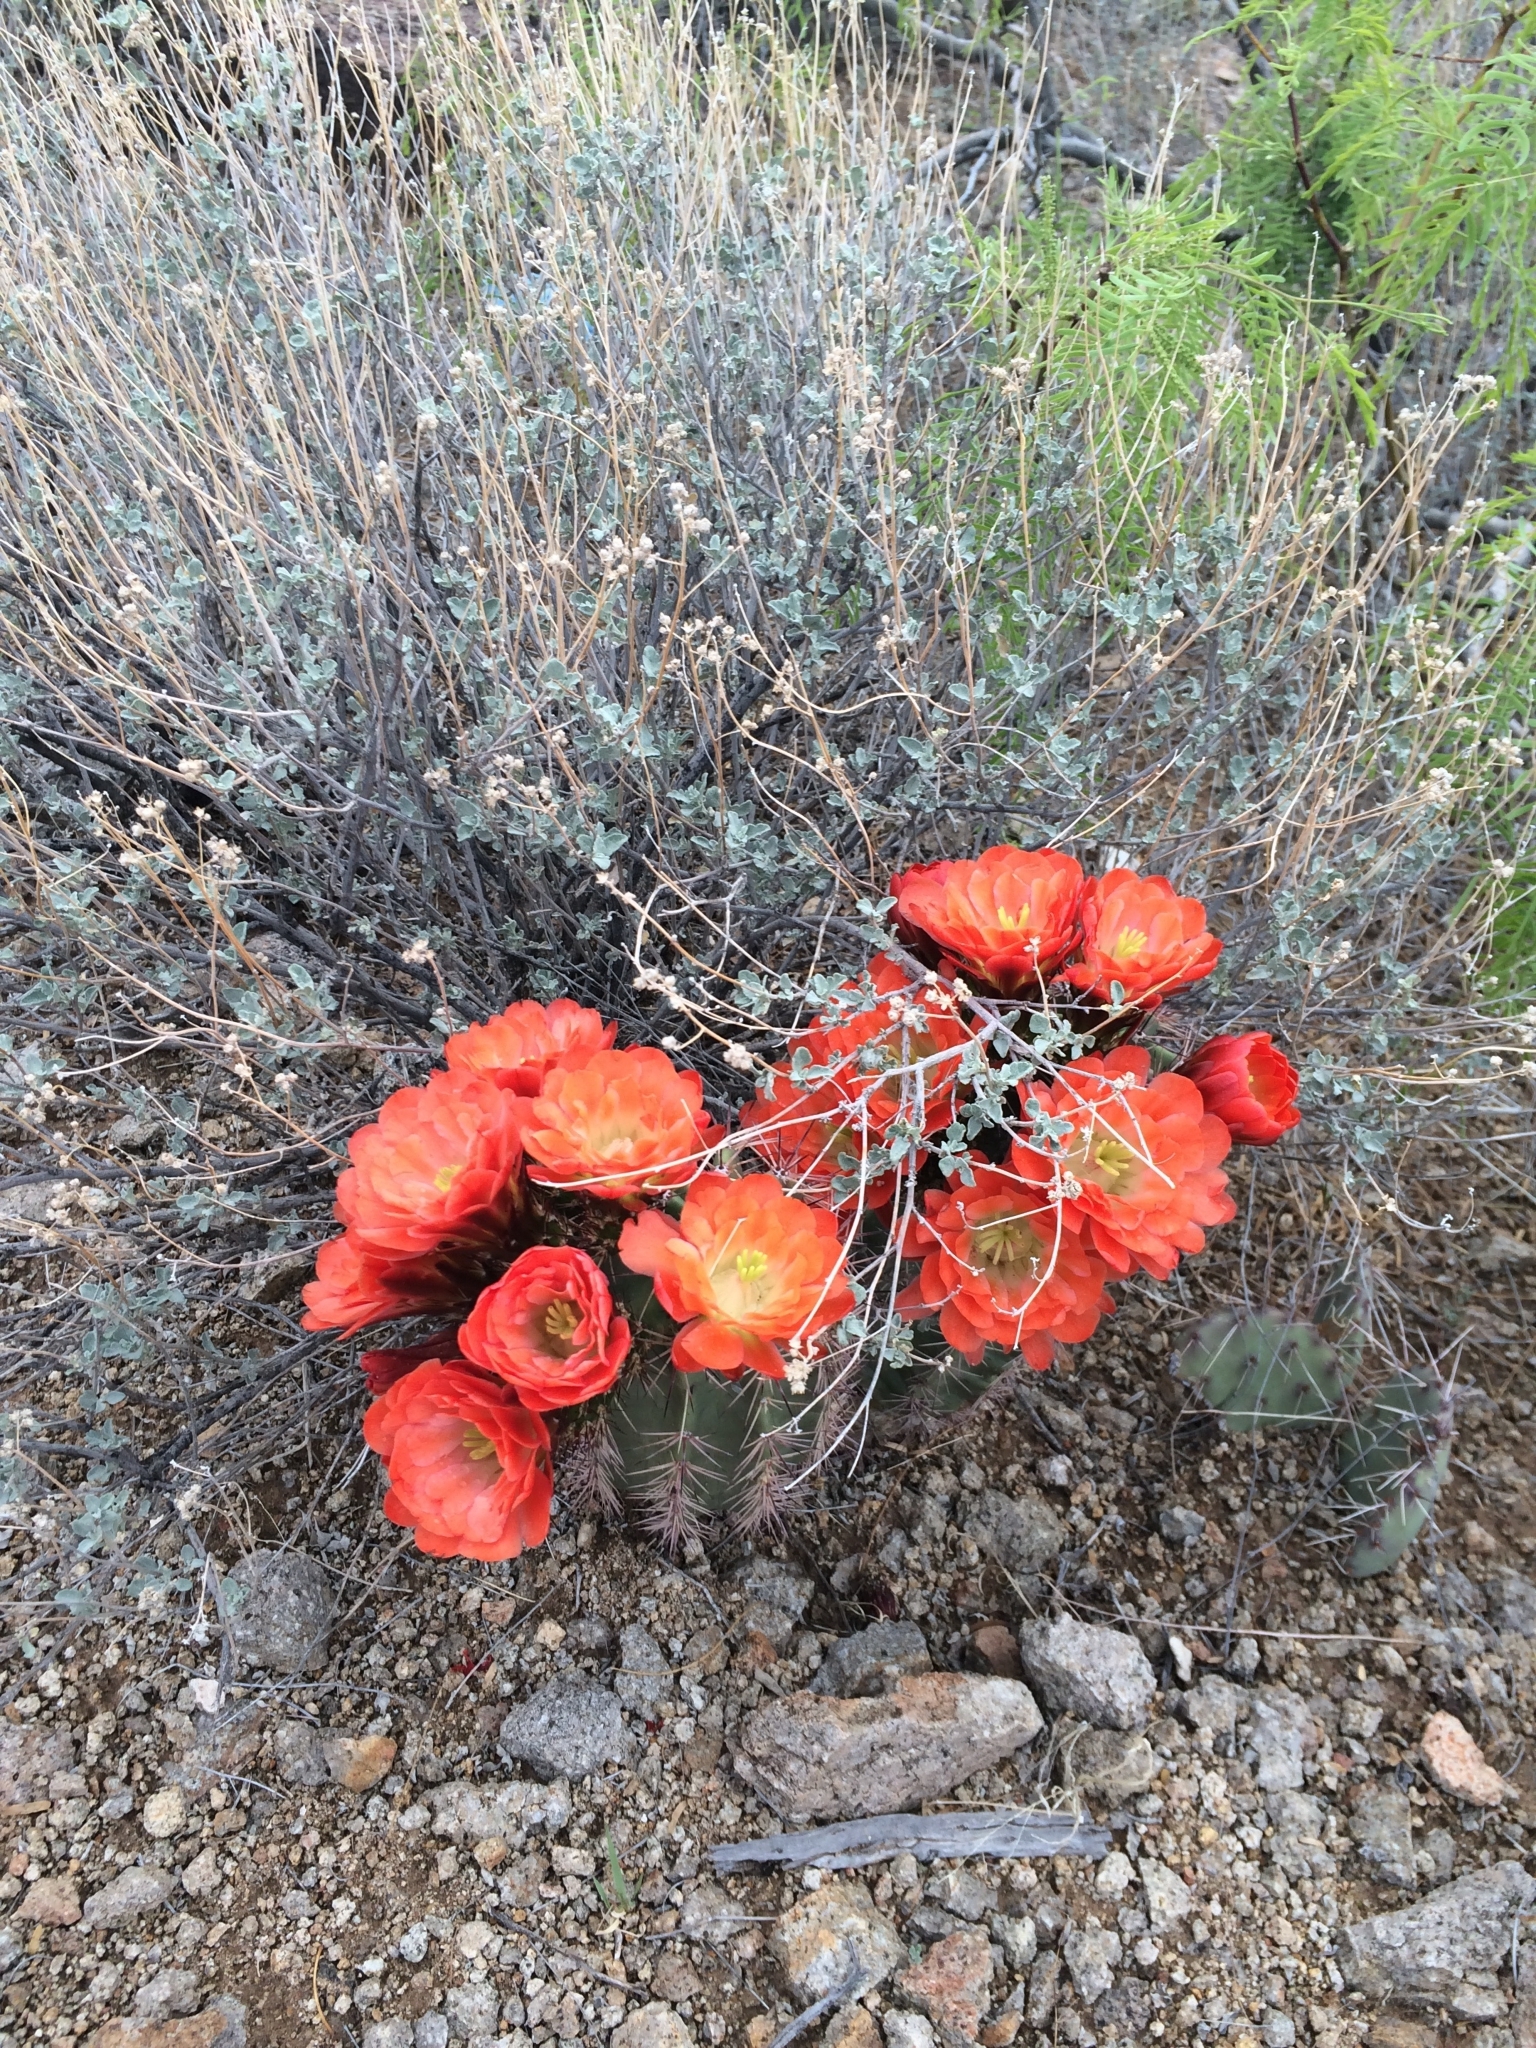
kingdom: Plantae
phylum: Tracheophyta
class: Magnoliopsida
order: Caryophyllales
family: Cactaceae
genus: Echinocereus
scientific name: Echinocereus coccineus
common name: Scarlet hedgehog cactus
